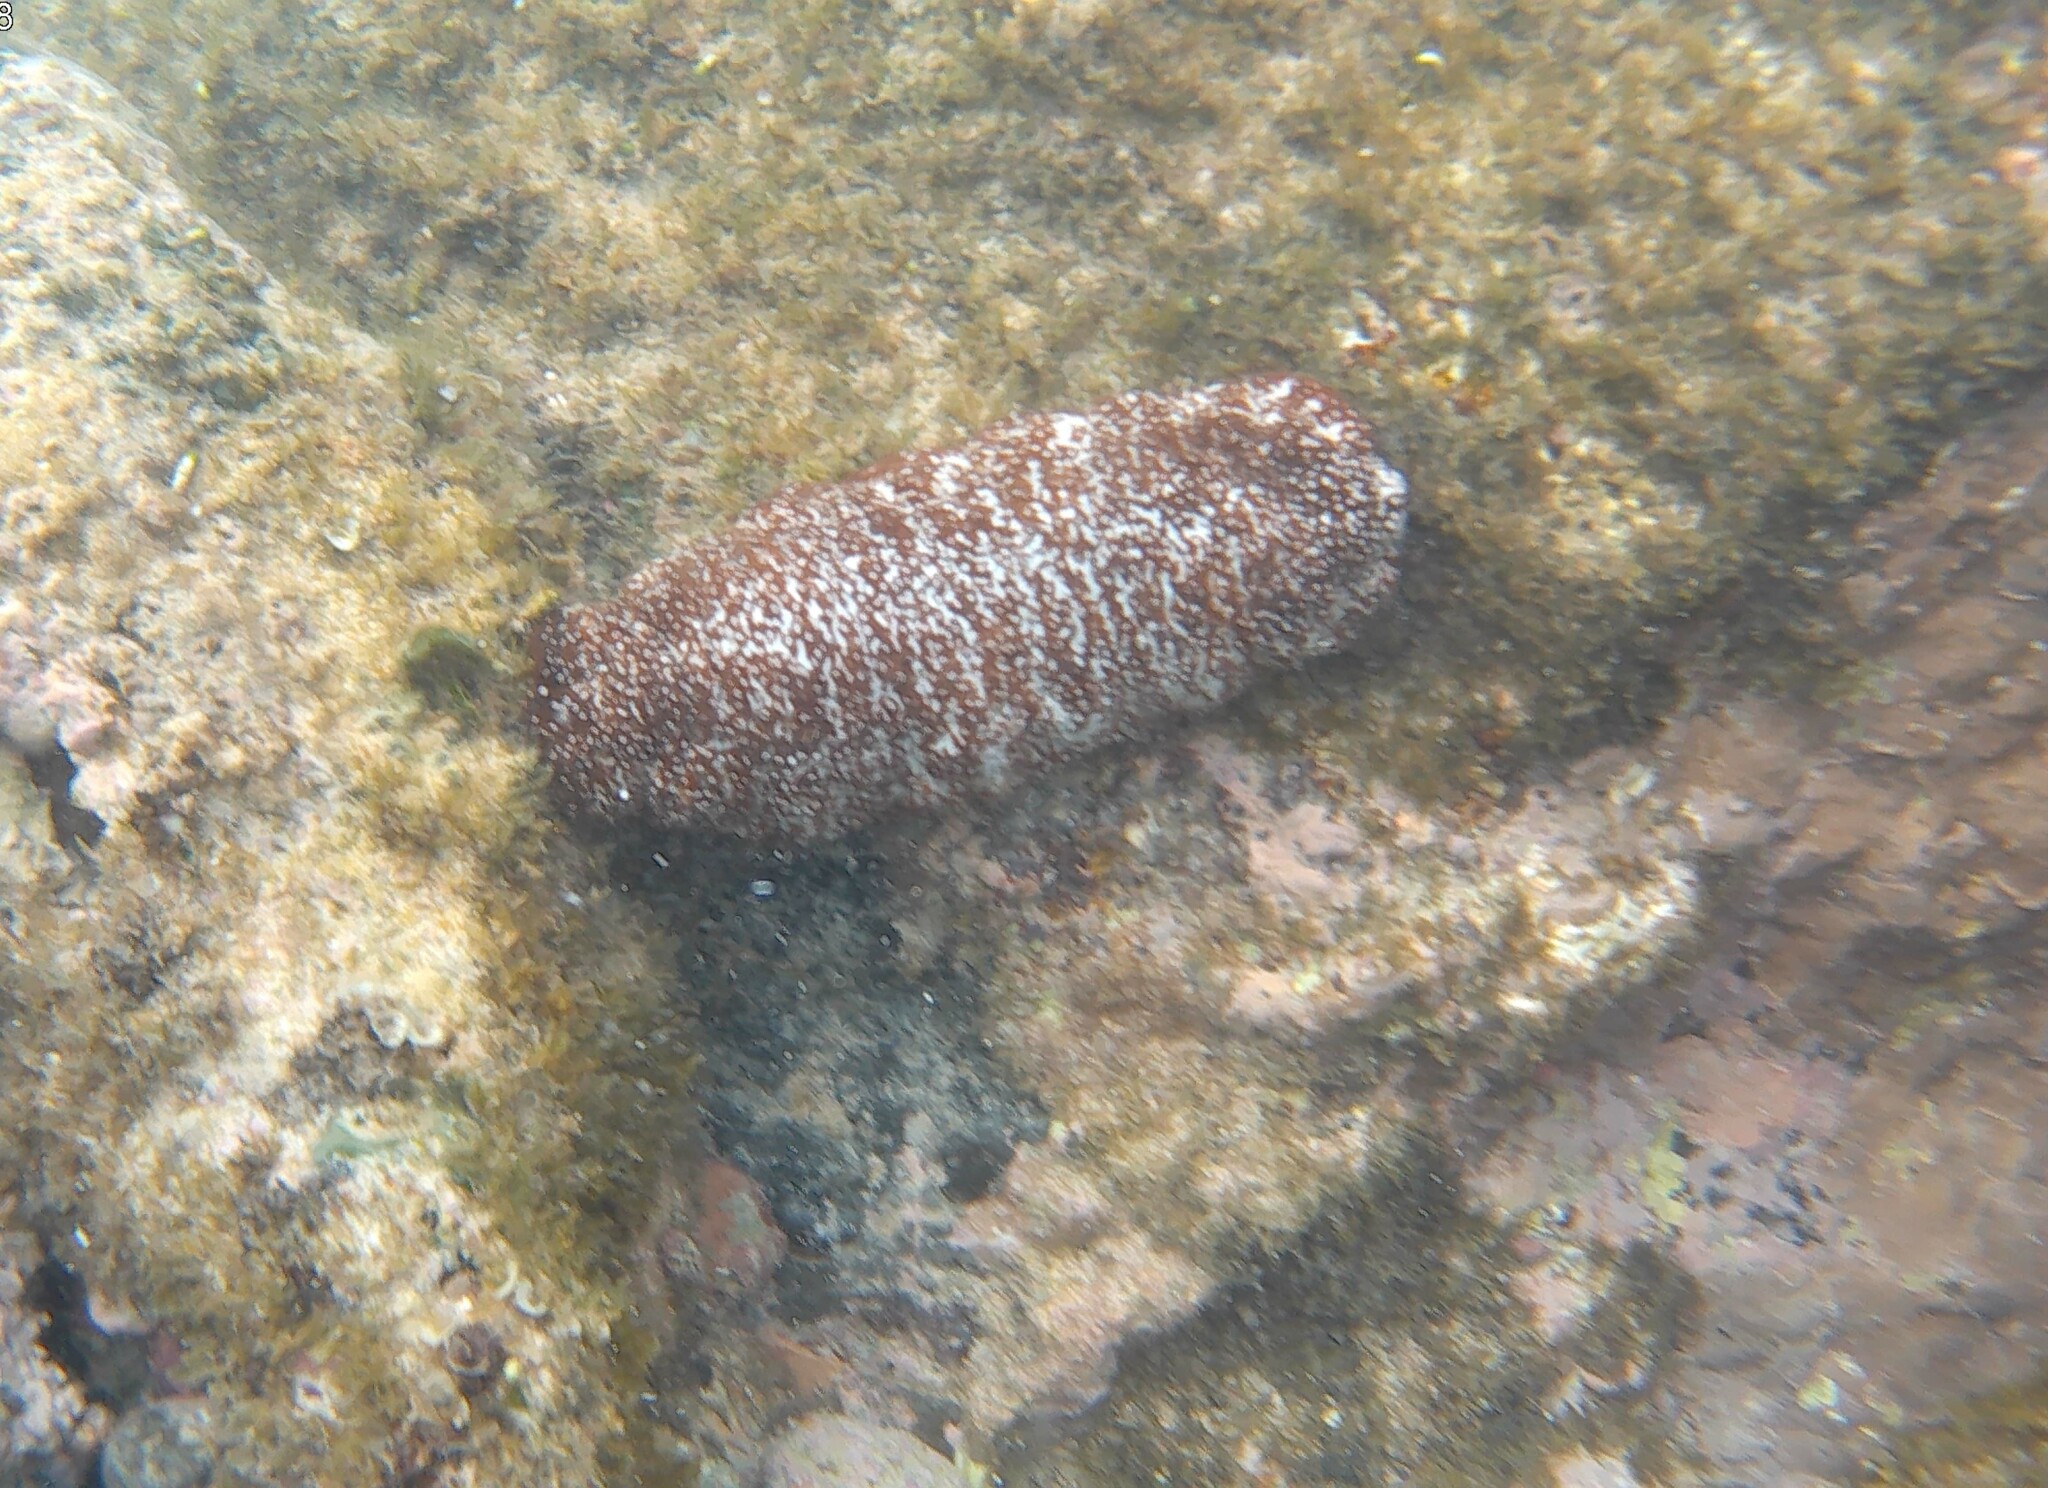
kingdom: Animalia
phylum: Echinodermata
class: Holothuroidea
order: Holothuriida
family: Holothuriidae
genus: Actinopyga
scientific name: Actinopyga varians
